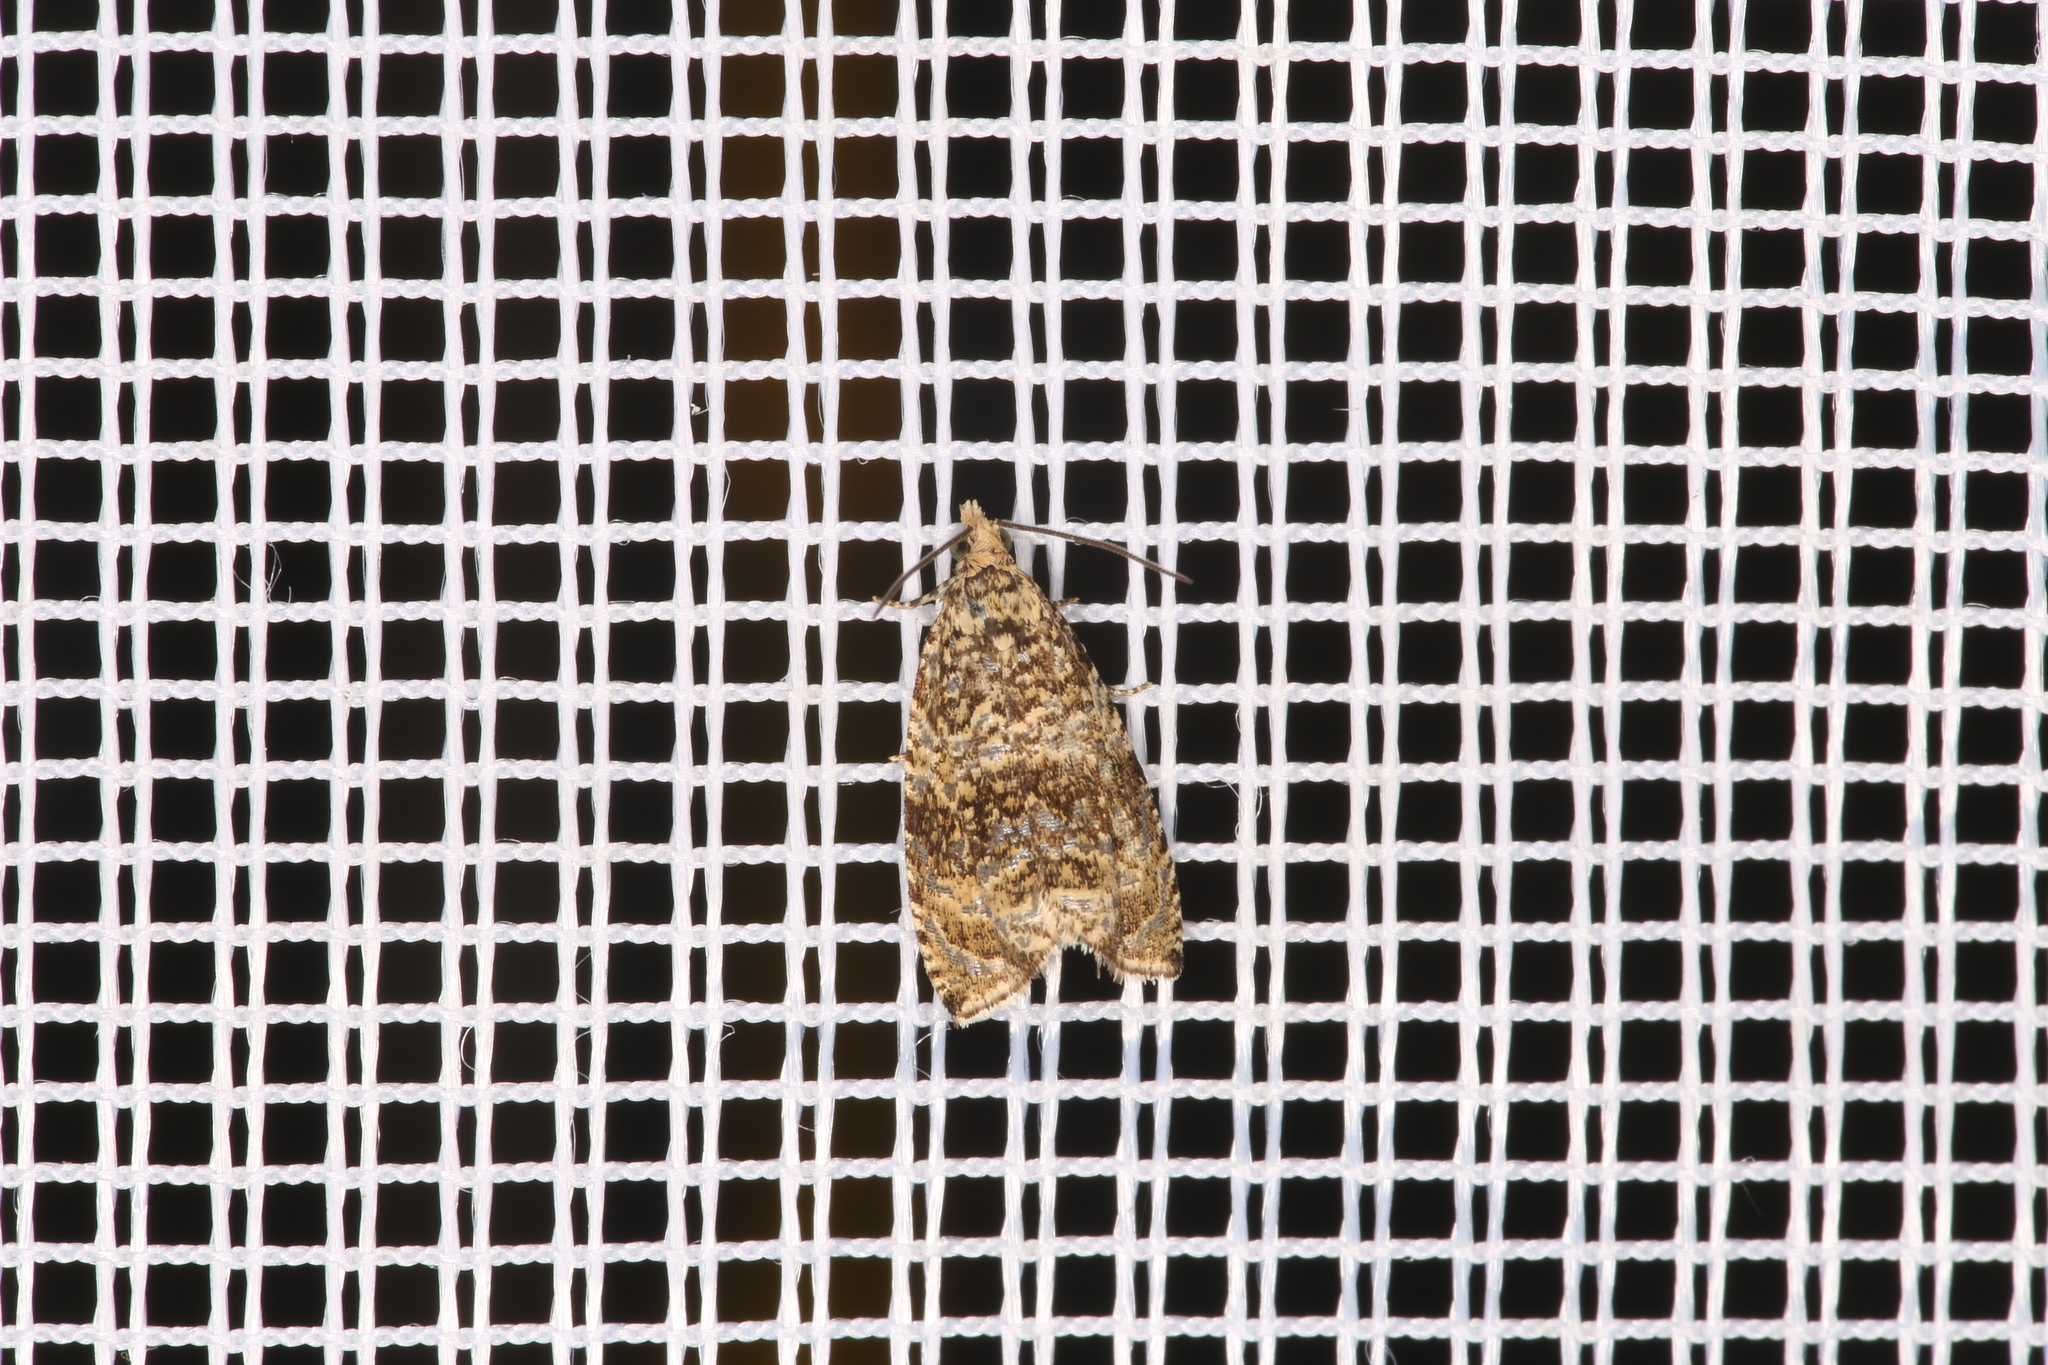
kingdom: Animalia
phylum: Arthropoda
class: Insecta
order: Lepidoptera
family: Tortricidae
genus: Syricoris
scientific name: Syricoris lacunana
